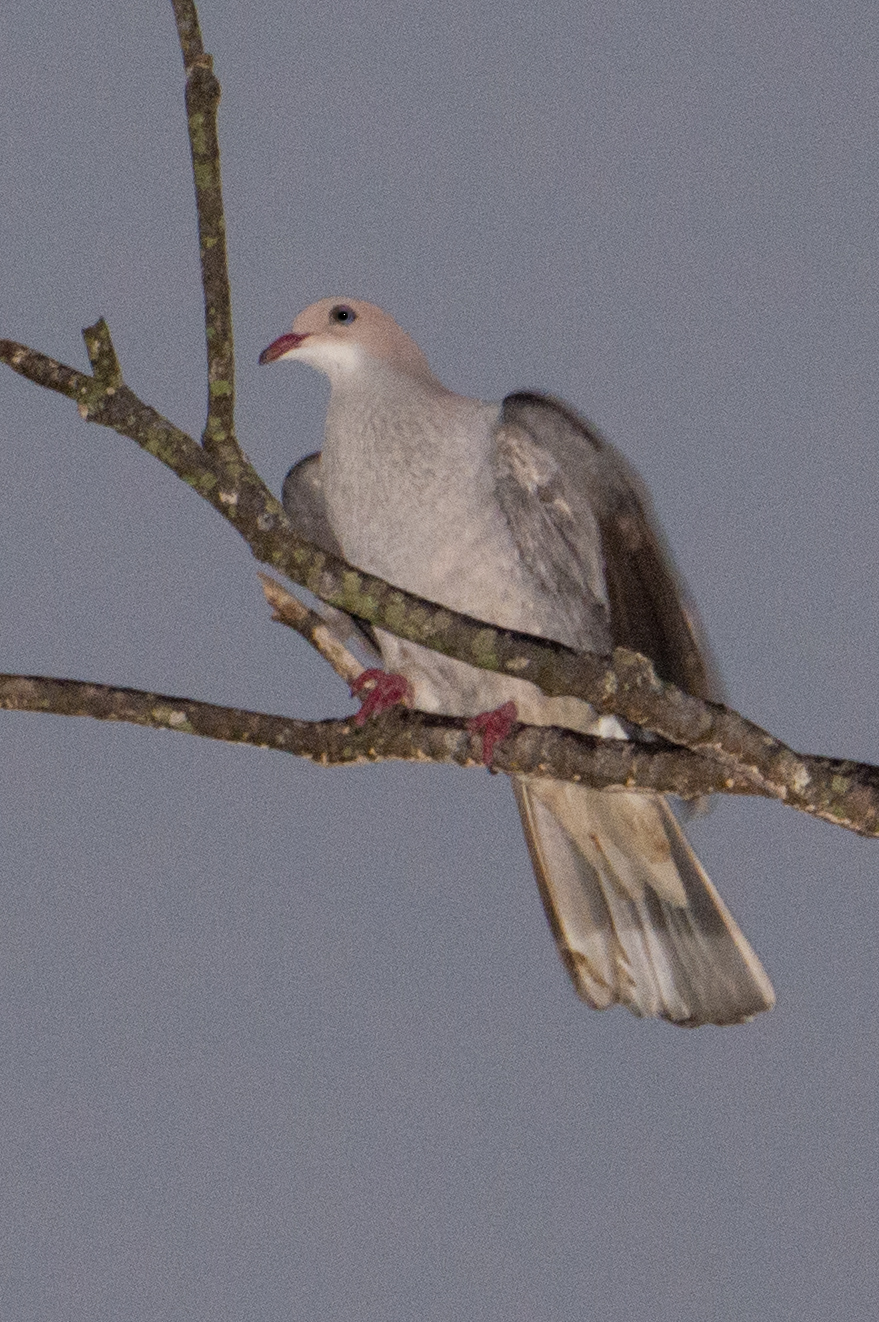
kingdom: Animalia
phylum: Chordata
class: Aves
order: Columbiformes
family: Columbidae
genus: Ducula
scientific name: Ducula badia
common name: Mountain imperial pigeon
